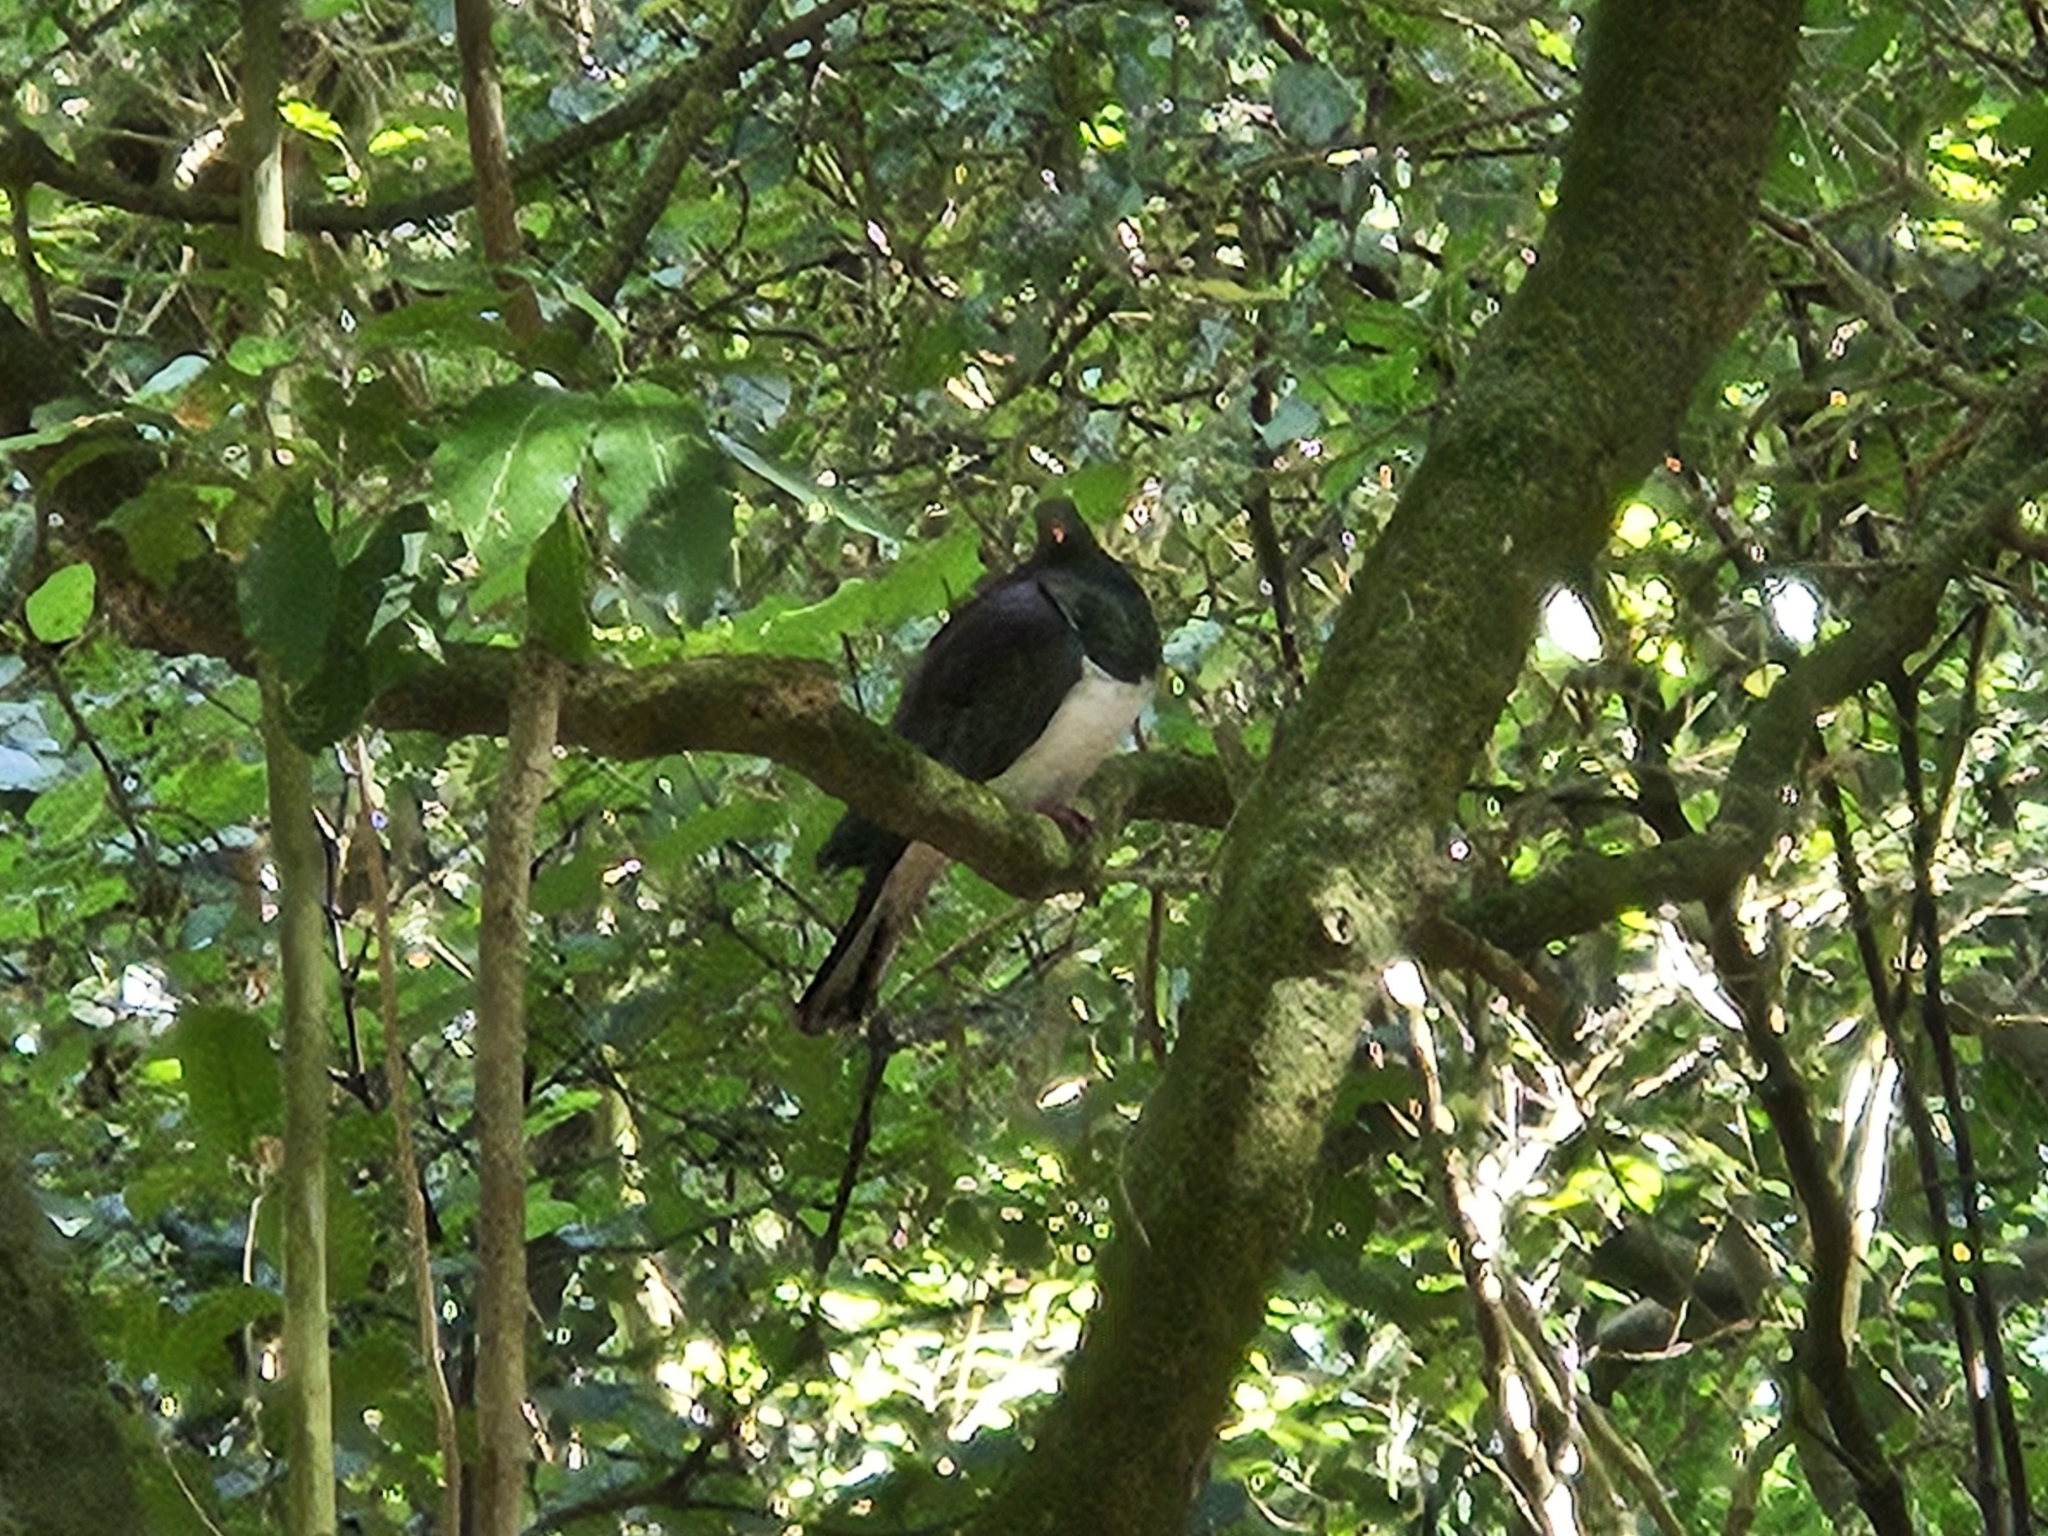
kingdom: Animalia
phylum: Chordata
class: Aves
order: Columbiformes
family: Columbidae
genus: Hemiphaga
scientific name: Hemiphaga novaeseelandiae
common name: New zealand pigeon
